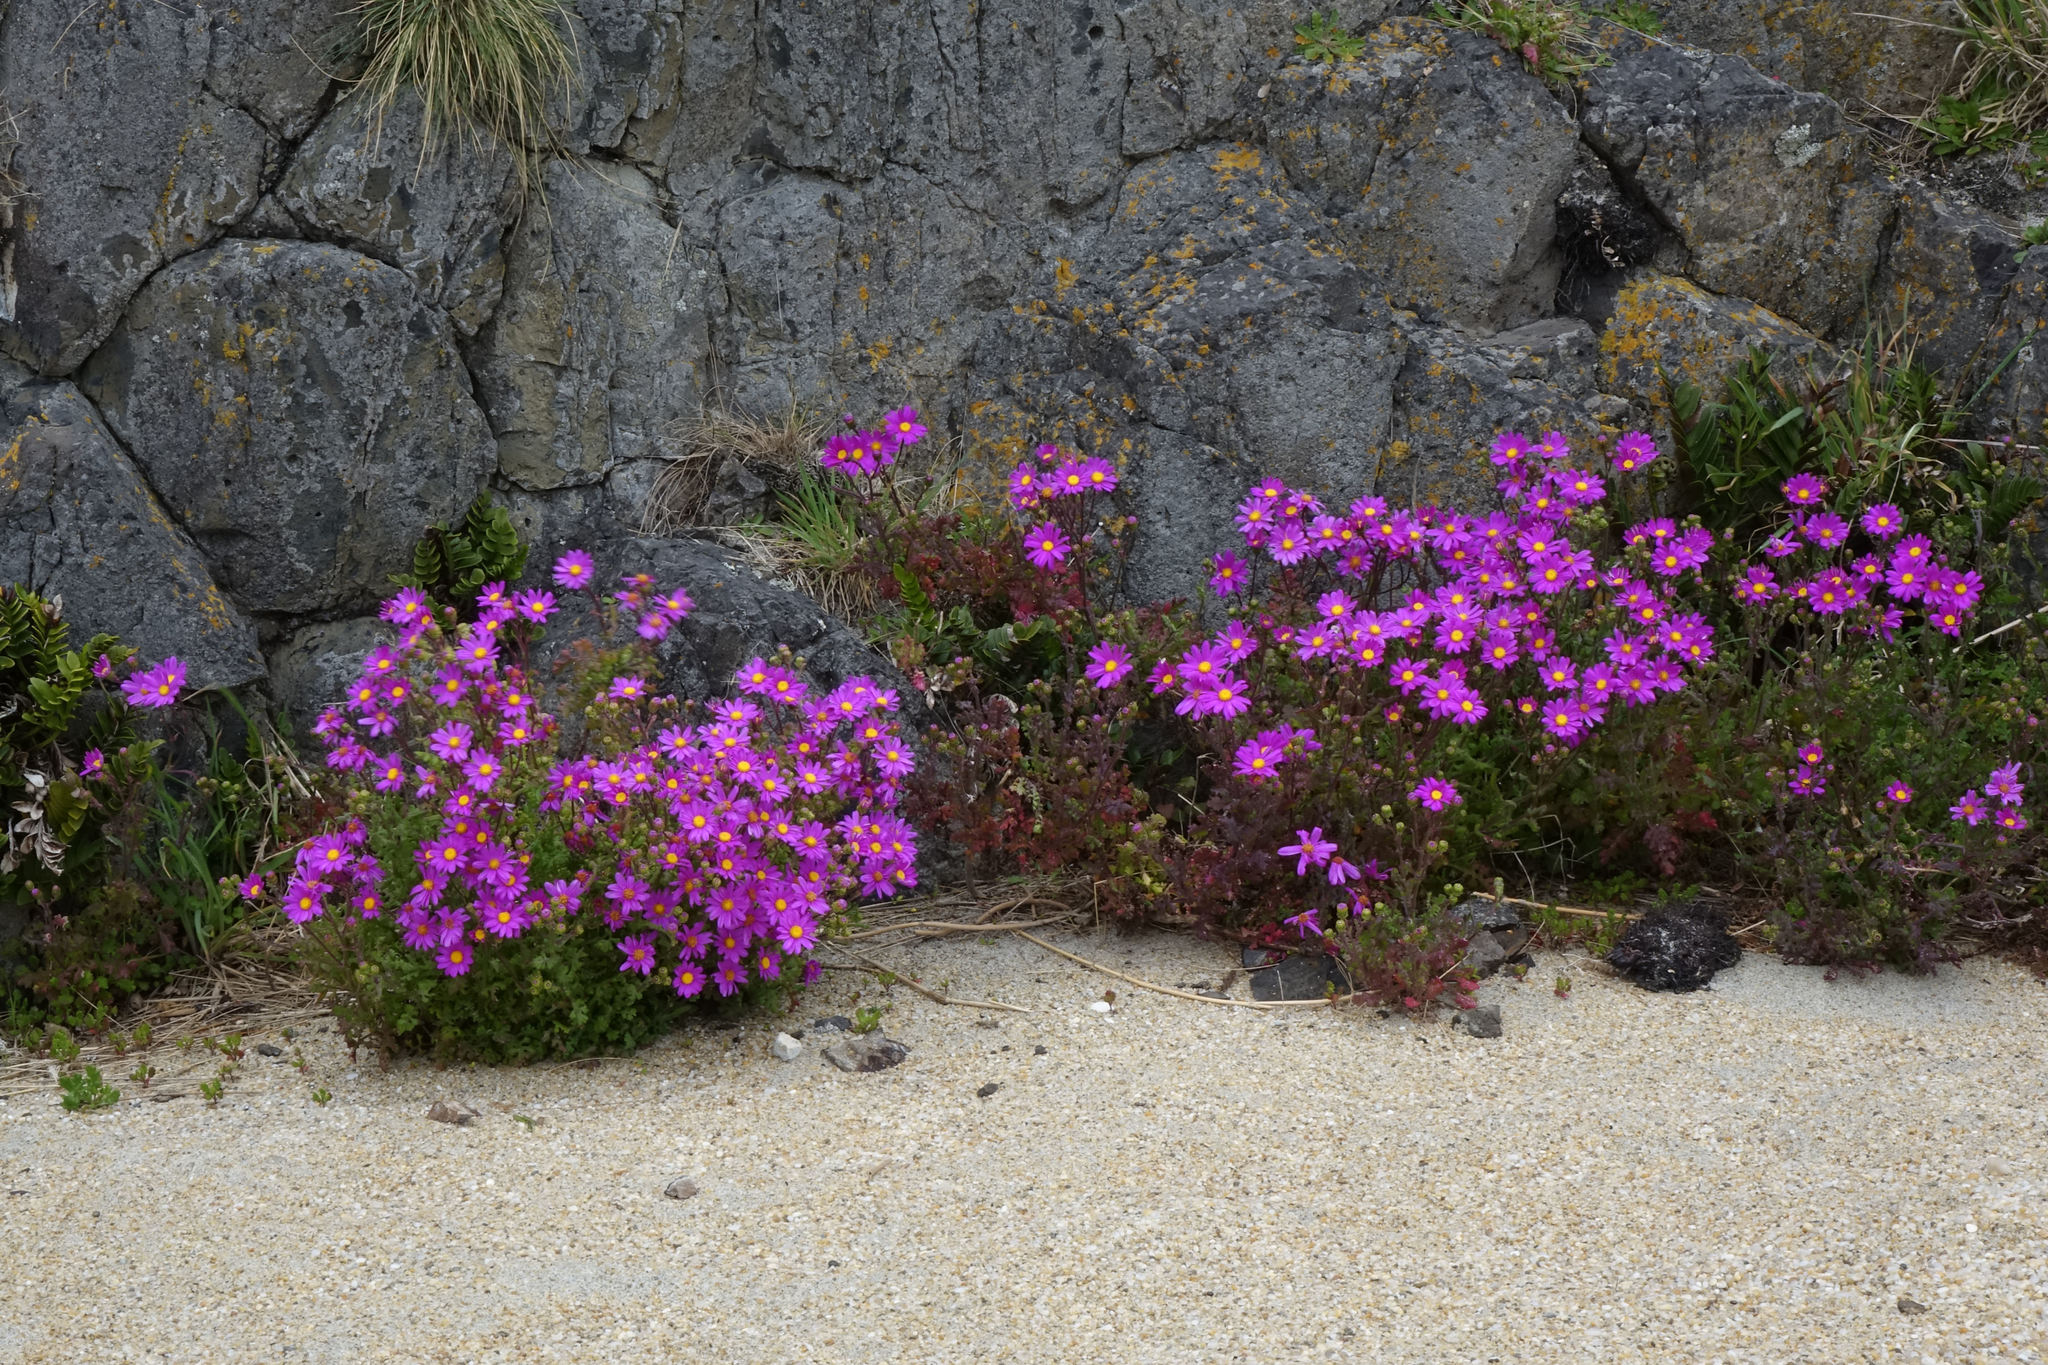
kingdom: Plantae
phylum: Tracheophyta
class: Magnoliopsida
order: Asterales
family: Asteraceae
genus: Senecio
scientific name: Senecio elegans
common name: Purple groundsel
